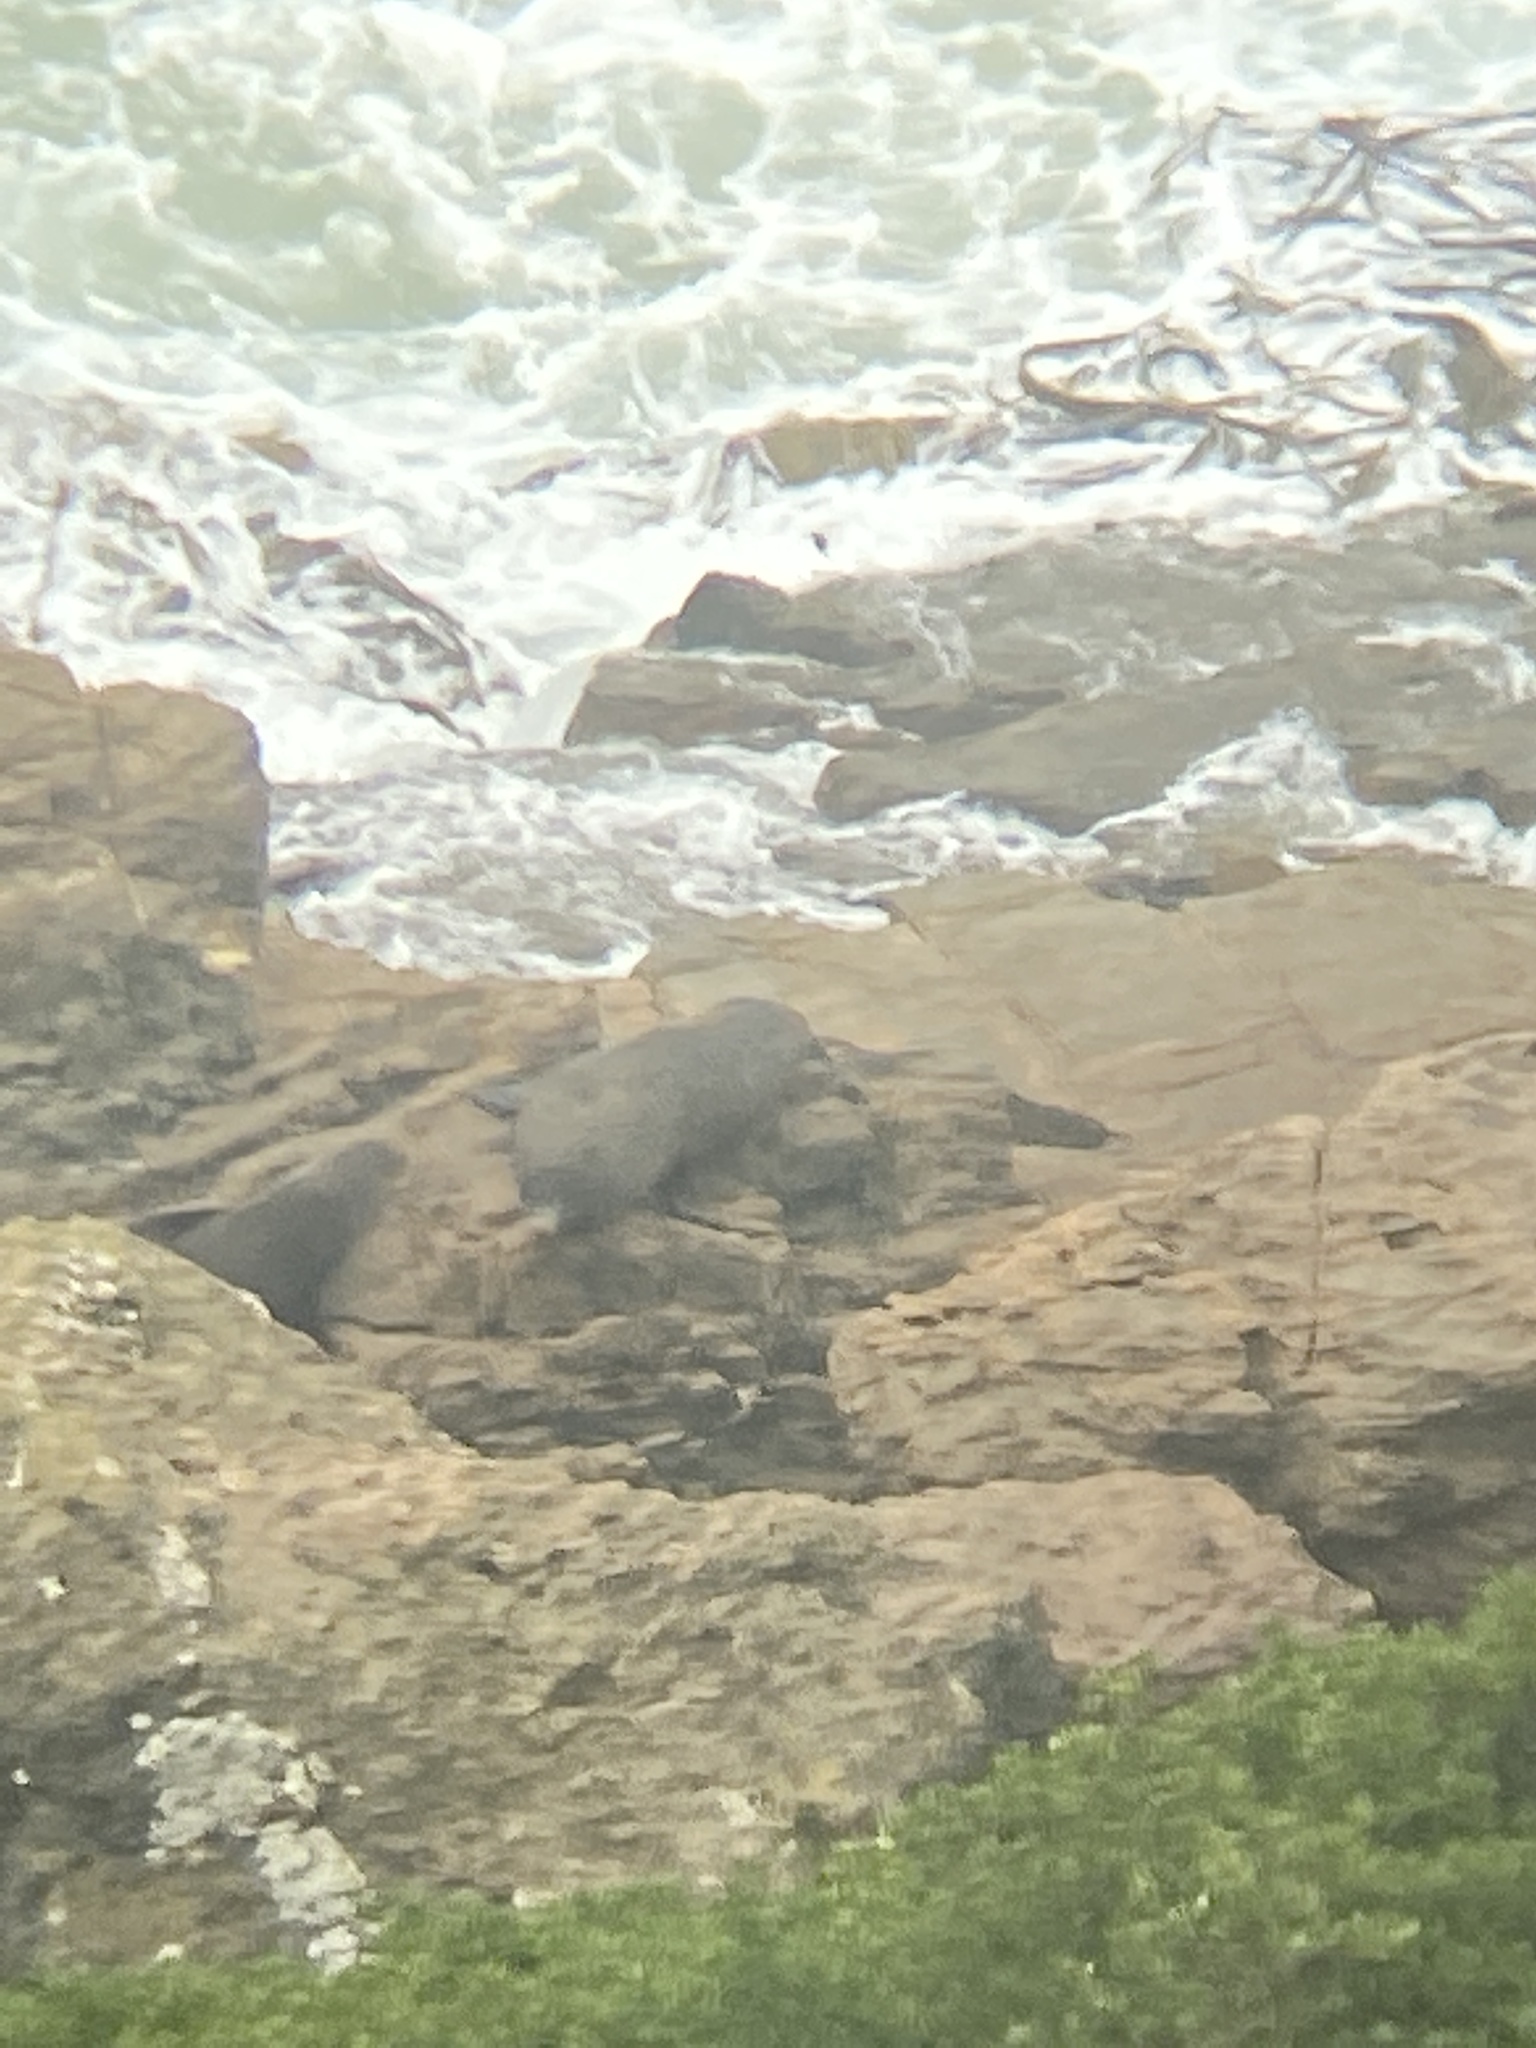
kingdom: Animalia
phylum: Chordata
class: Mammalia
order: Carnivora
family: Otariidae
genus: Arctocephalus
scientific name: Arctocephalus forsteri
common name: New zealand fur seal
